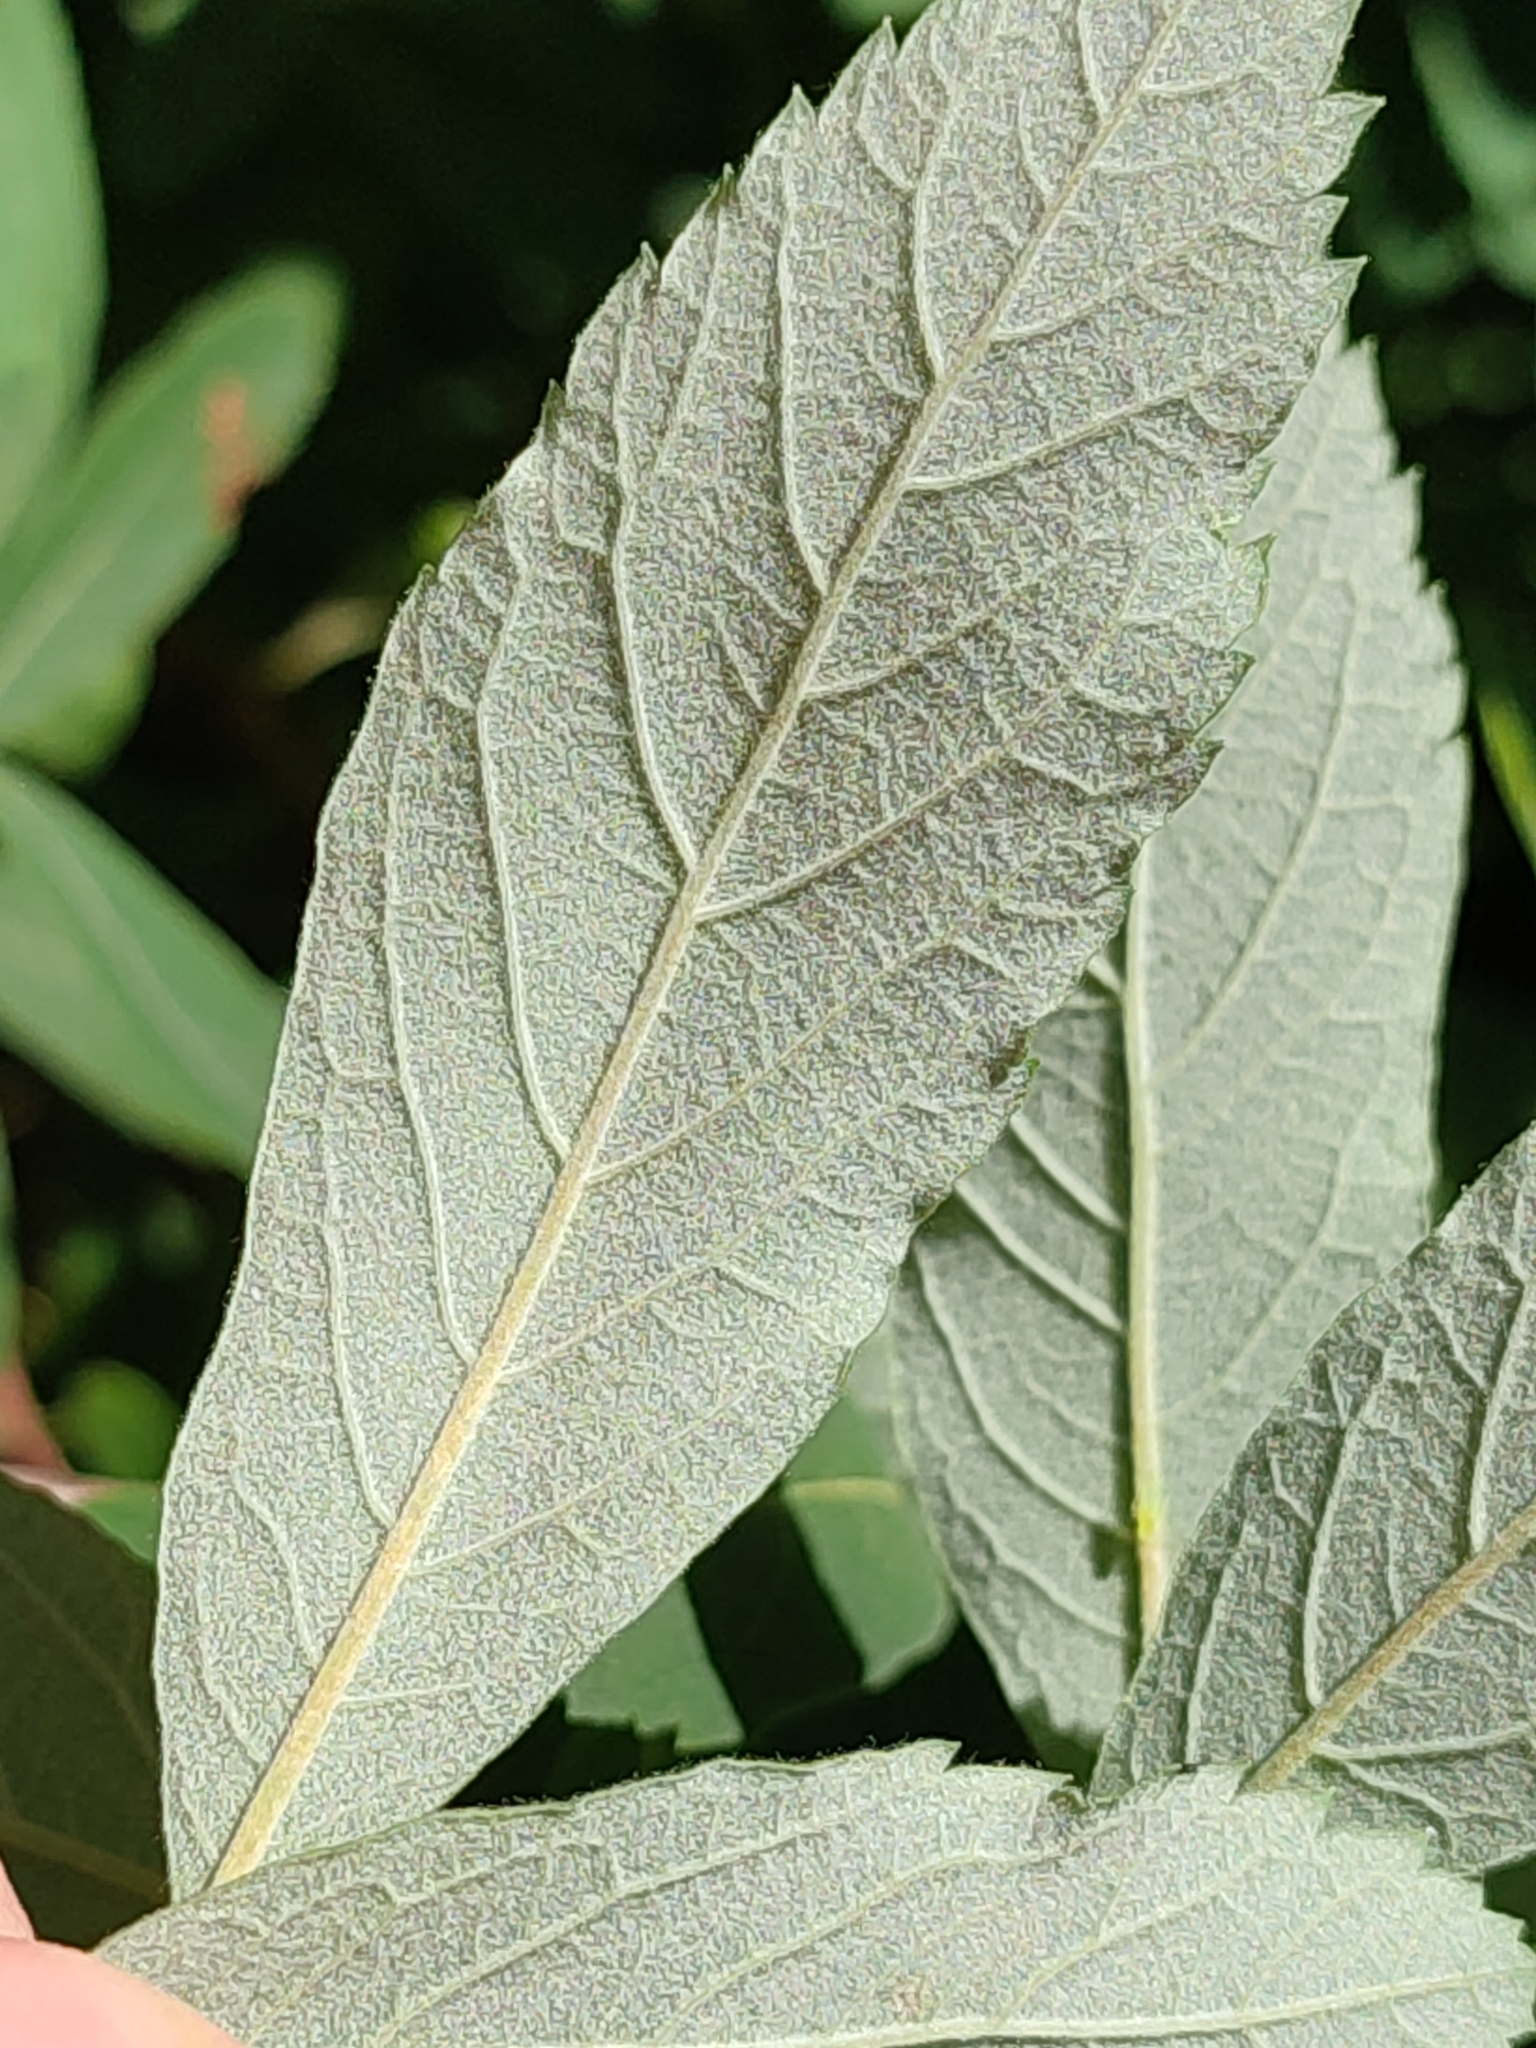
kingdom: Plantae
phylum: Tracheophyta
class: Magnoliopsida
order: Rosales
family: Rosaceae
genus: Spiraea
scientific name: Spiraea douglasii
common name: Steeplebush
